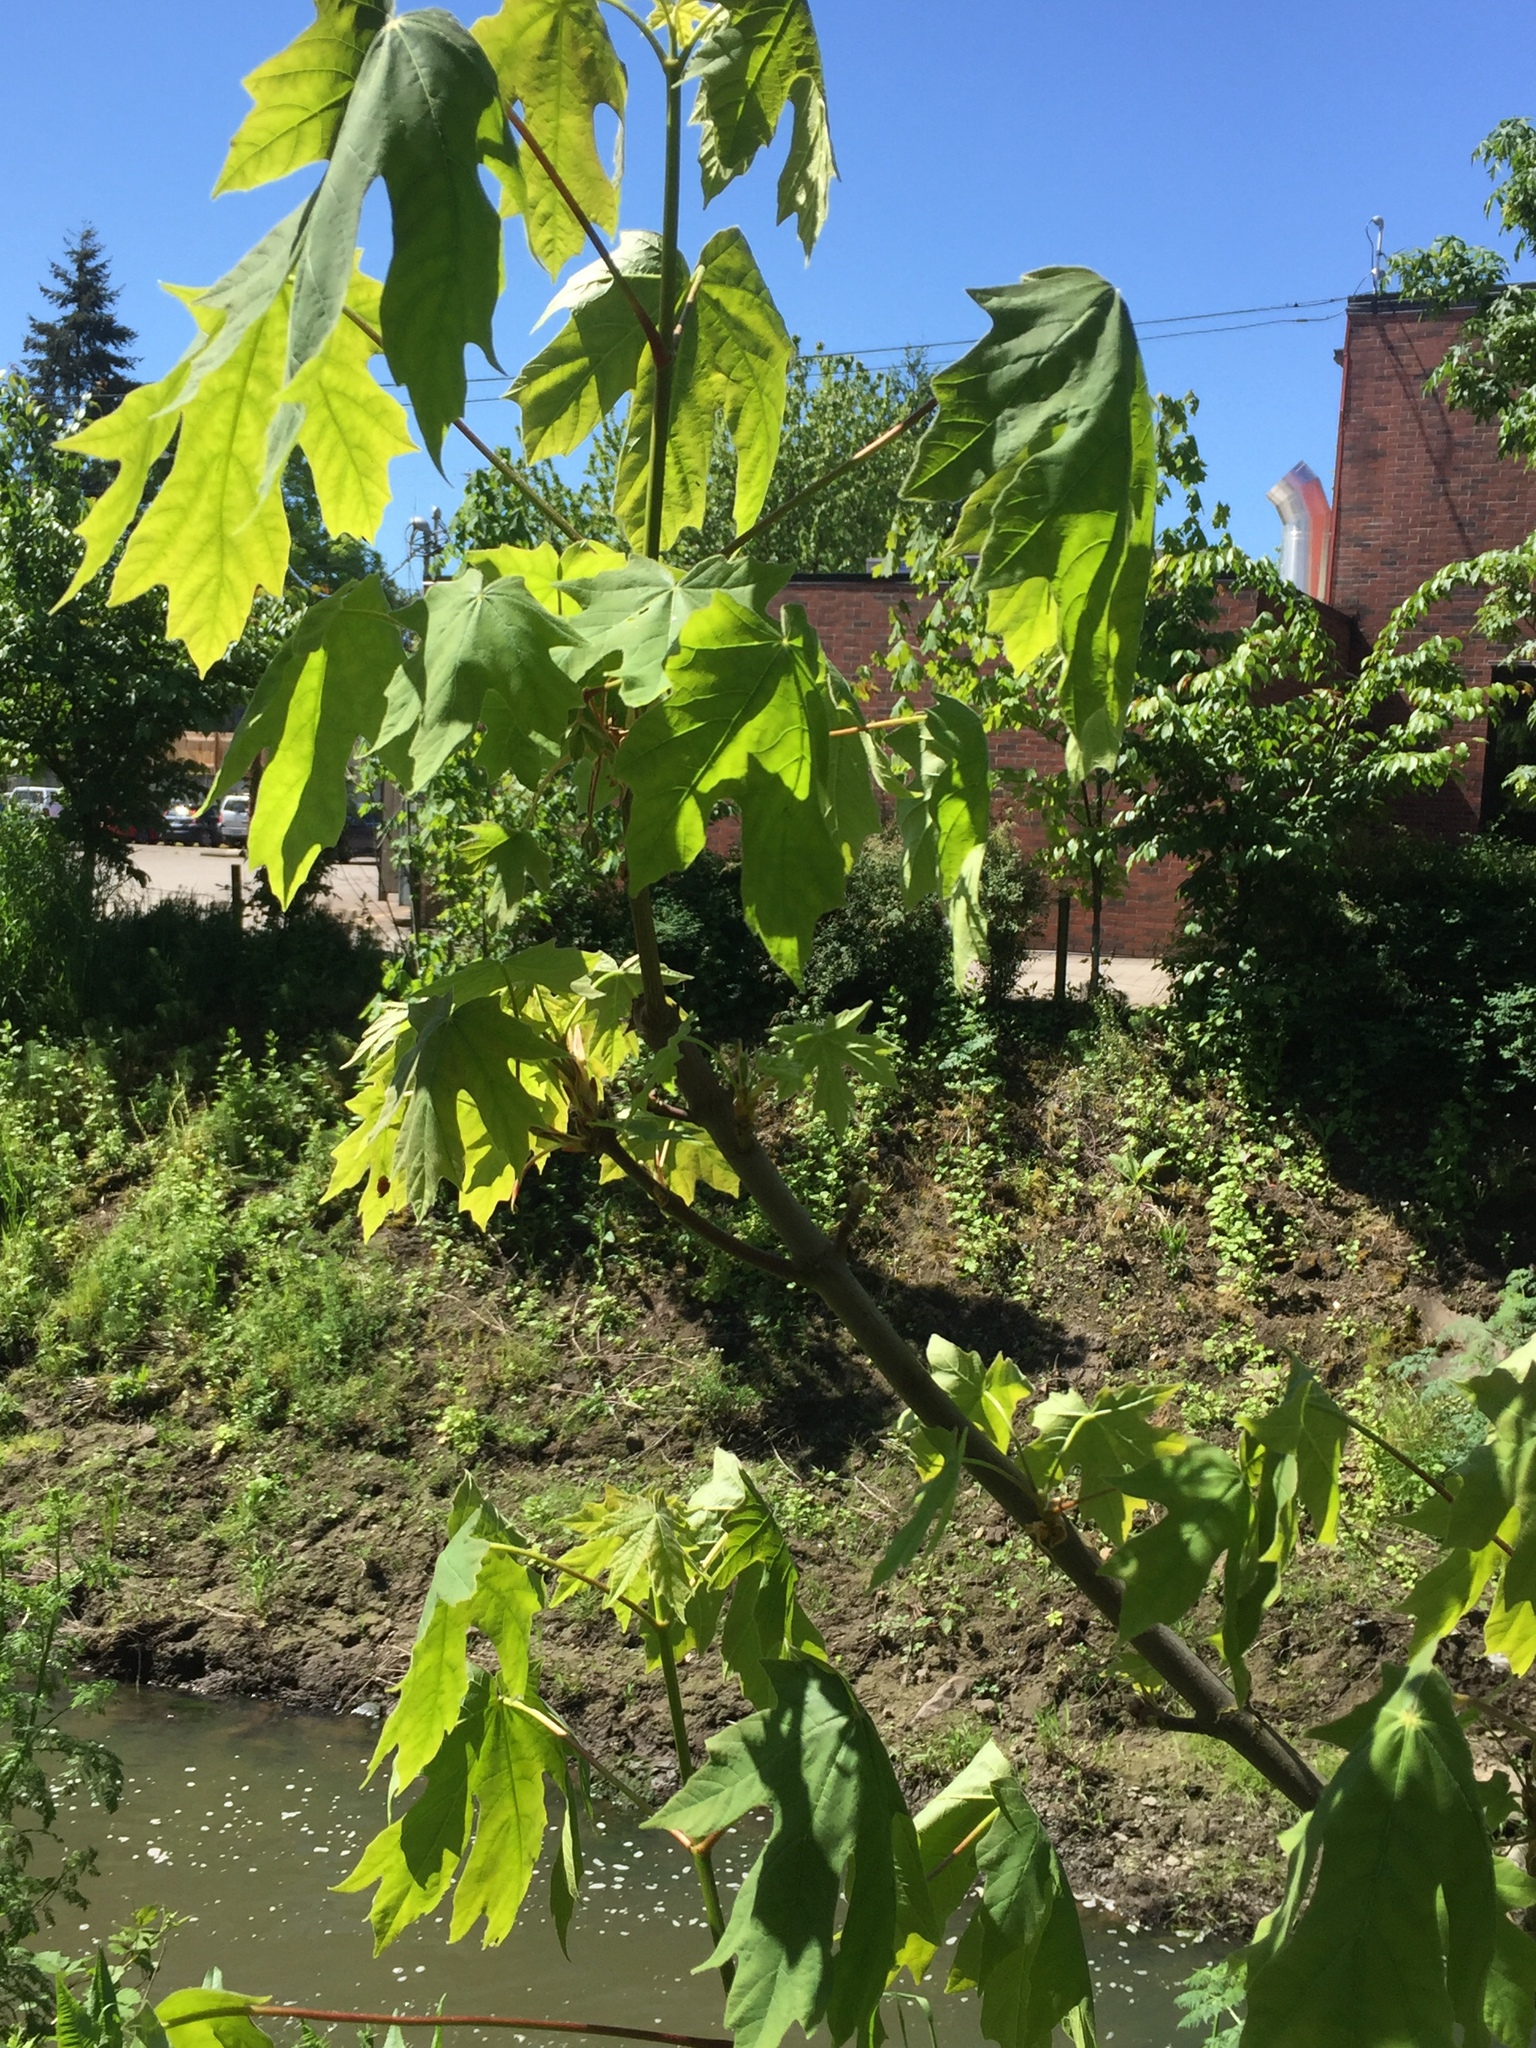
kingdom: Plantae
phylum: Tracheophyta
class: Magnoliopsida
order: Sapindales
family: Sapindaceae
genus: Acer
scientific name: Acer macrophyllum
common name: Oregon maple
